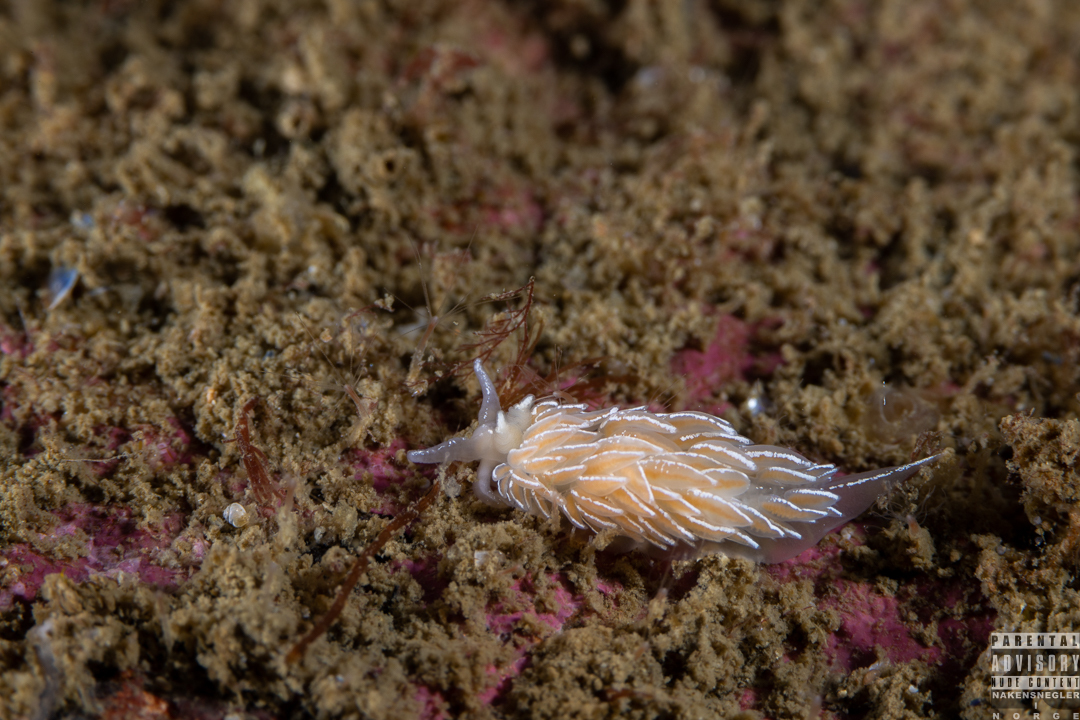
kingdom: Animalia
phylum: Mollusca
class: Gastropoda
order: Nudibranchia
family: Facelinidae
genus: Favorinus
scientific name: Favorinus blianus
